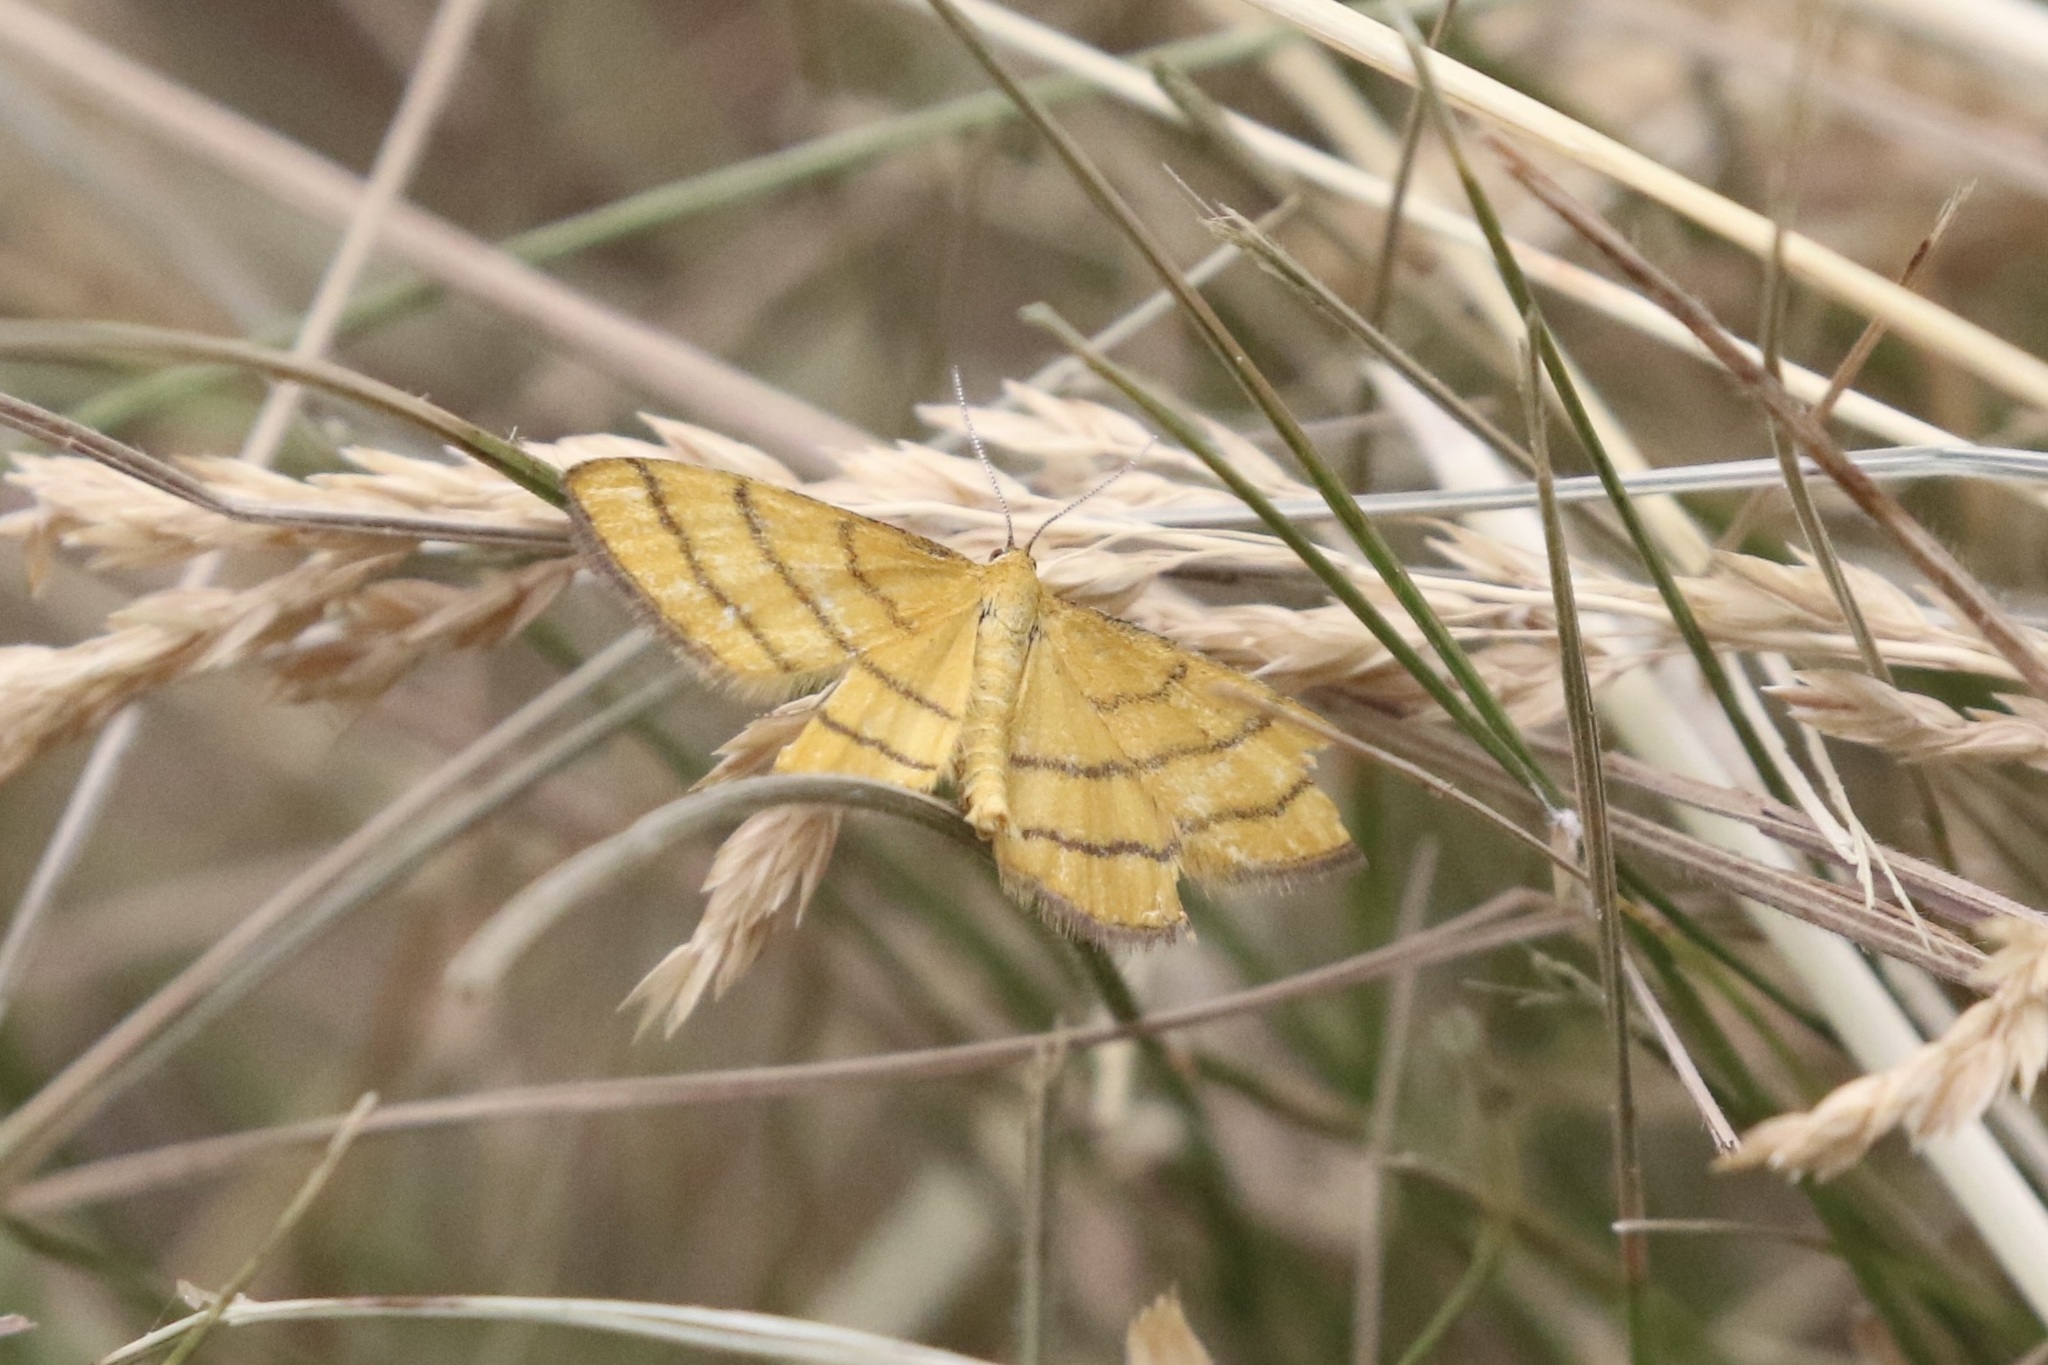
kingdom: Animalia
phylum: Arthropoda
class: Insecta
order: Lepidoptera
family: Geometridae
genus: Idaea
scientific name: Idaea aureolaria
